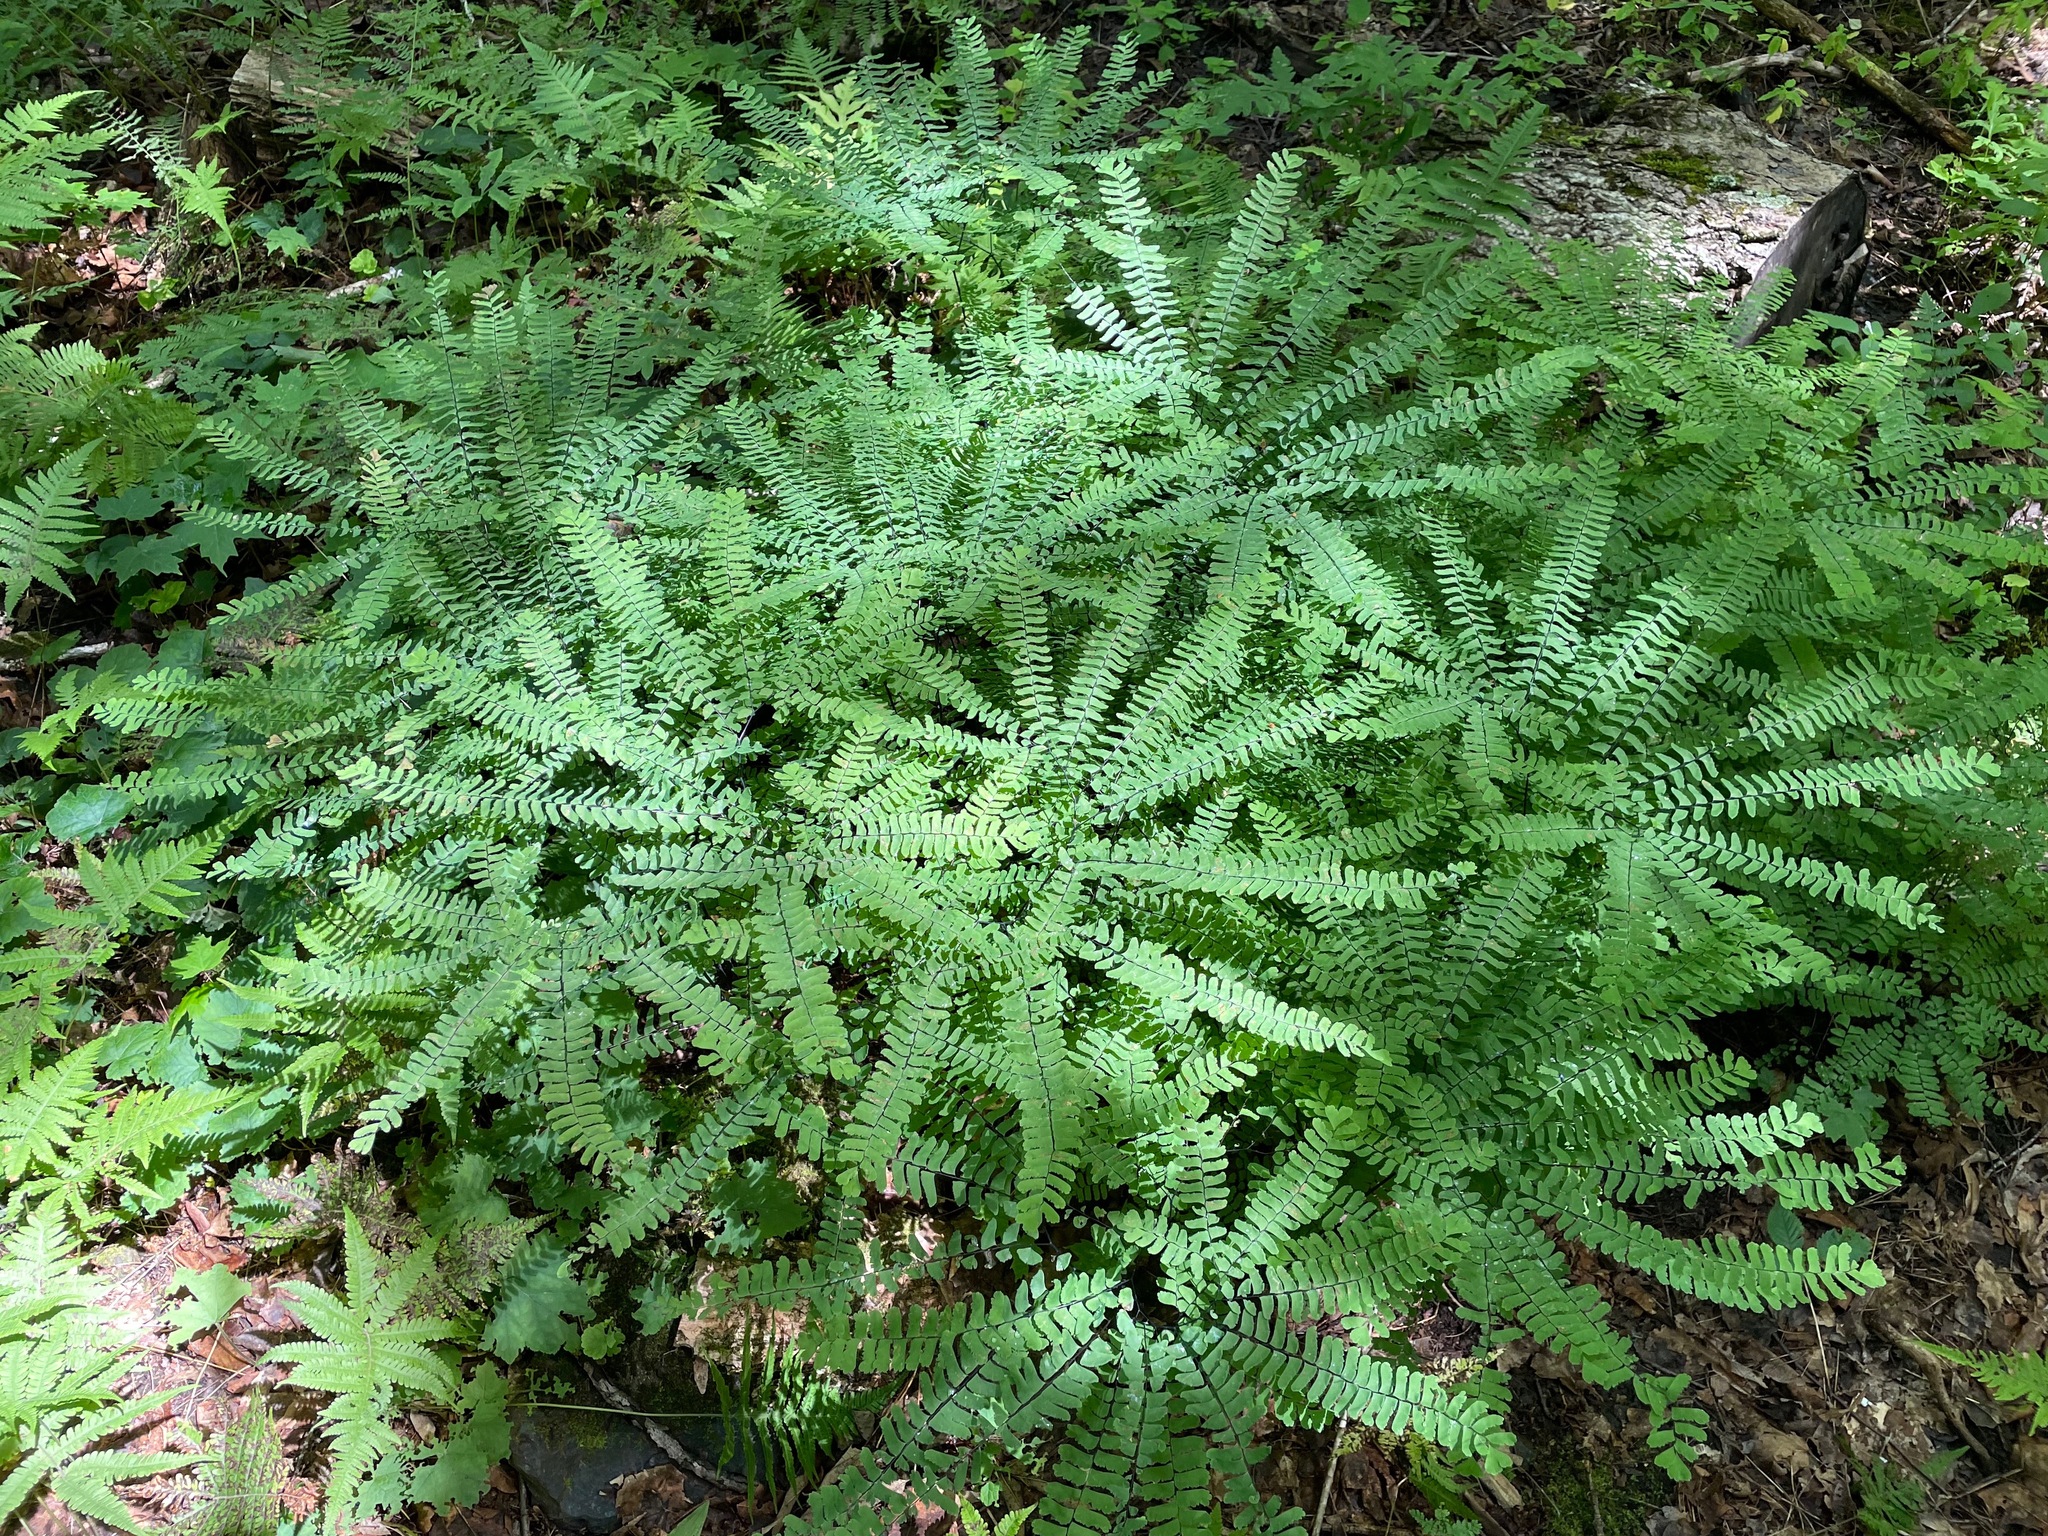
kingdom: Plantae
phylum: Tracheophyta
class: Polypodiopsida
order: Polypodiales
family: Pteridaceae
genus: Adiantum
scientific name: Adiantum pedatum
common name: Five-finger fern
